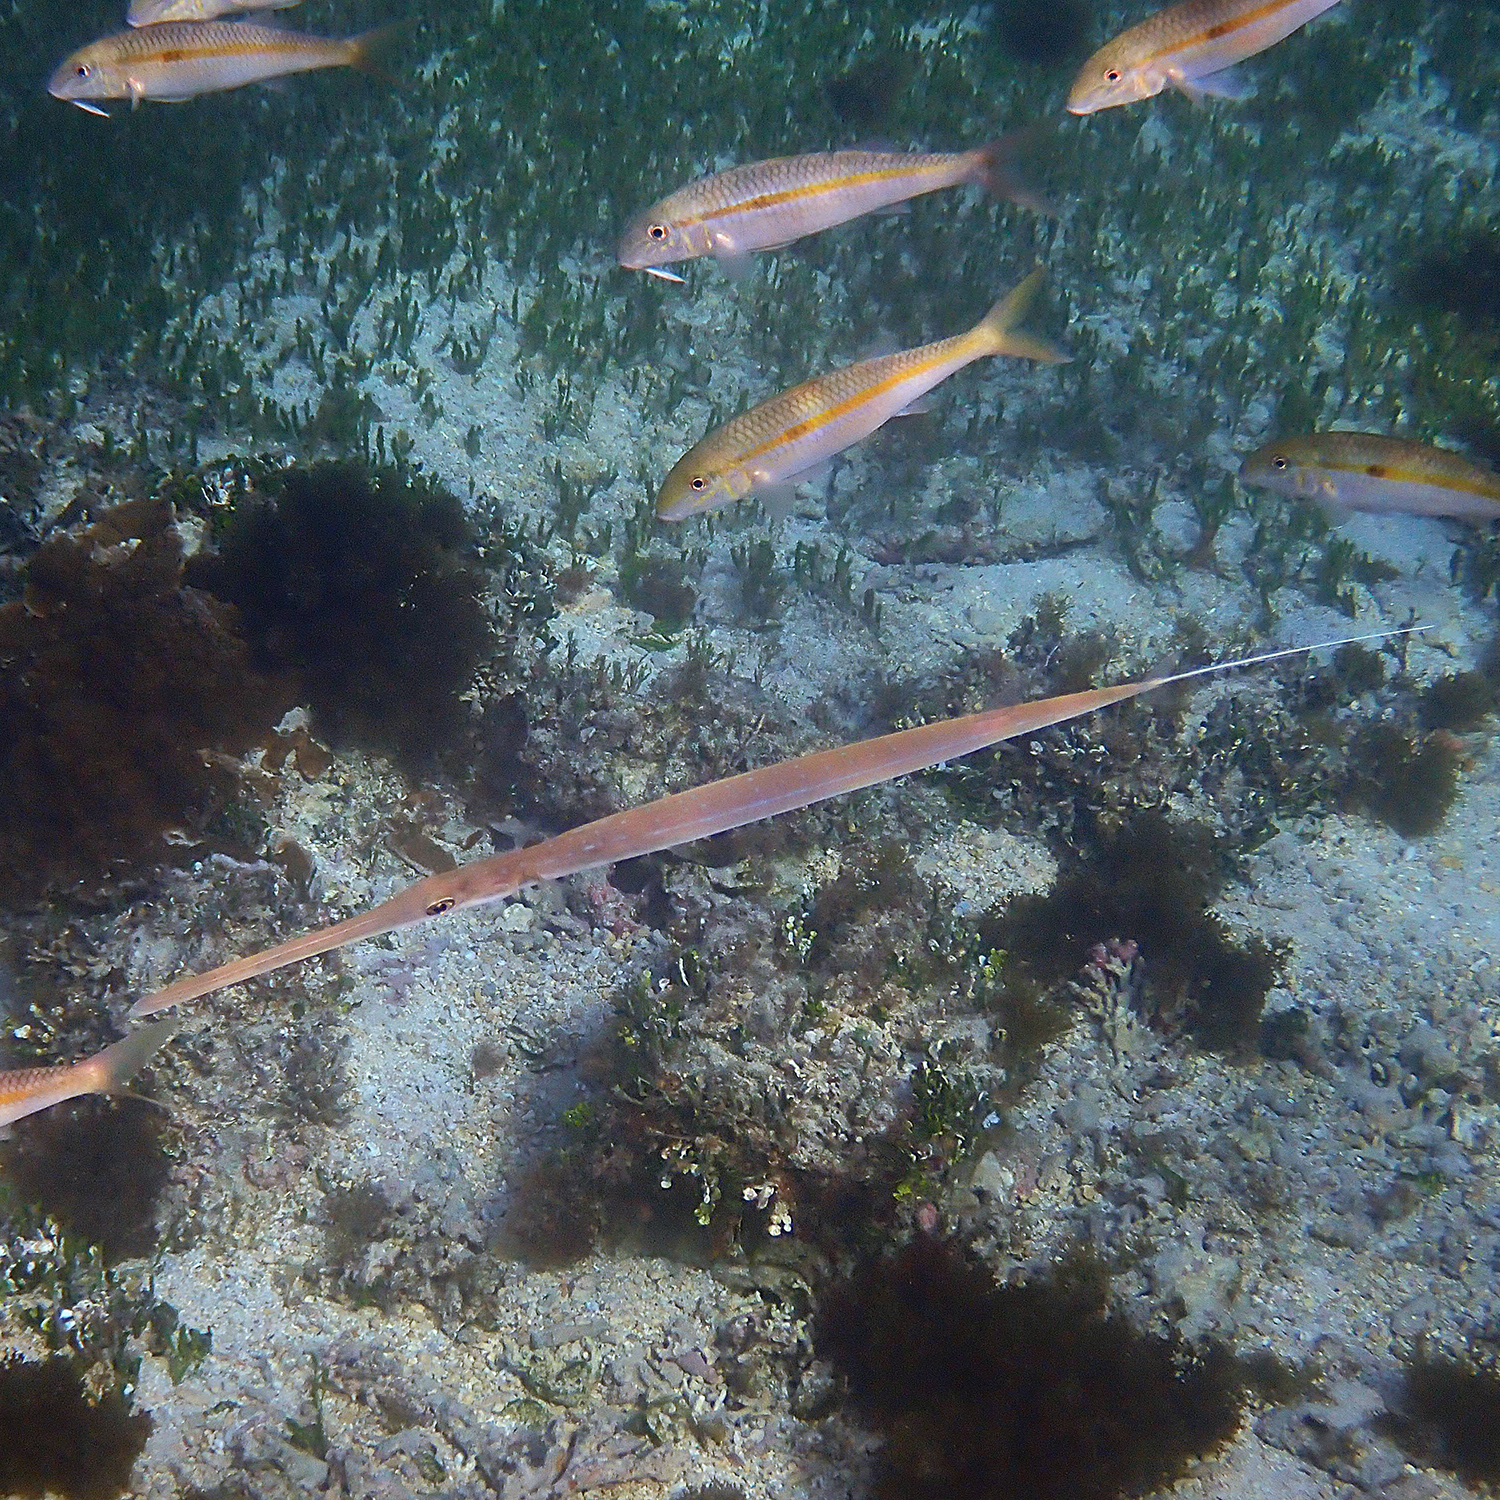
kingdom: Animalia
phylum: Chordata
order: Syngnathiformes
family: Fistulariidae
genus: Fistularia
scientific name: Fistularia commersonii
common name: Bluespotted cornetfish
